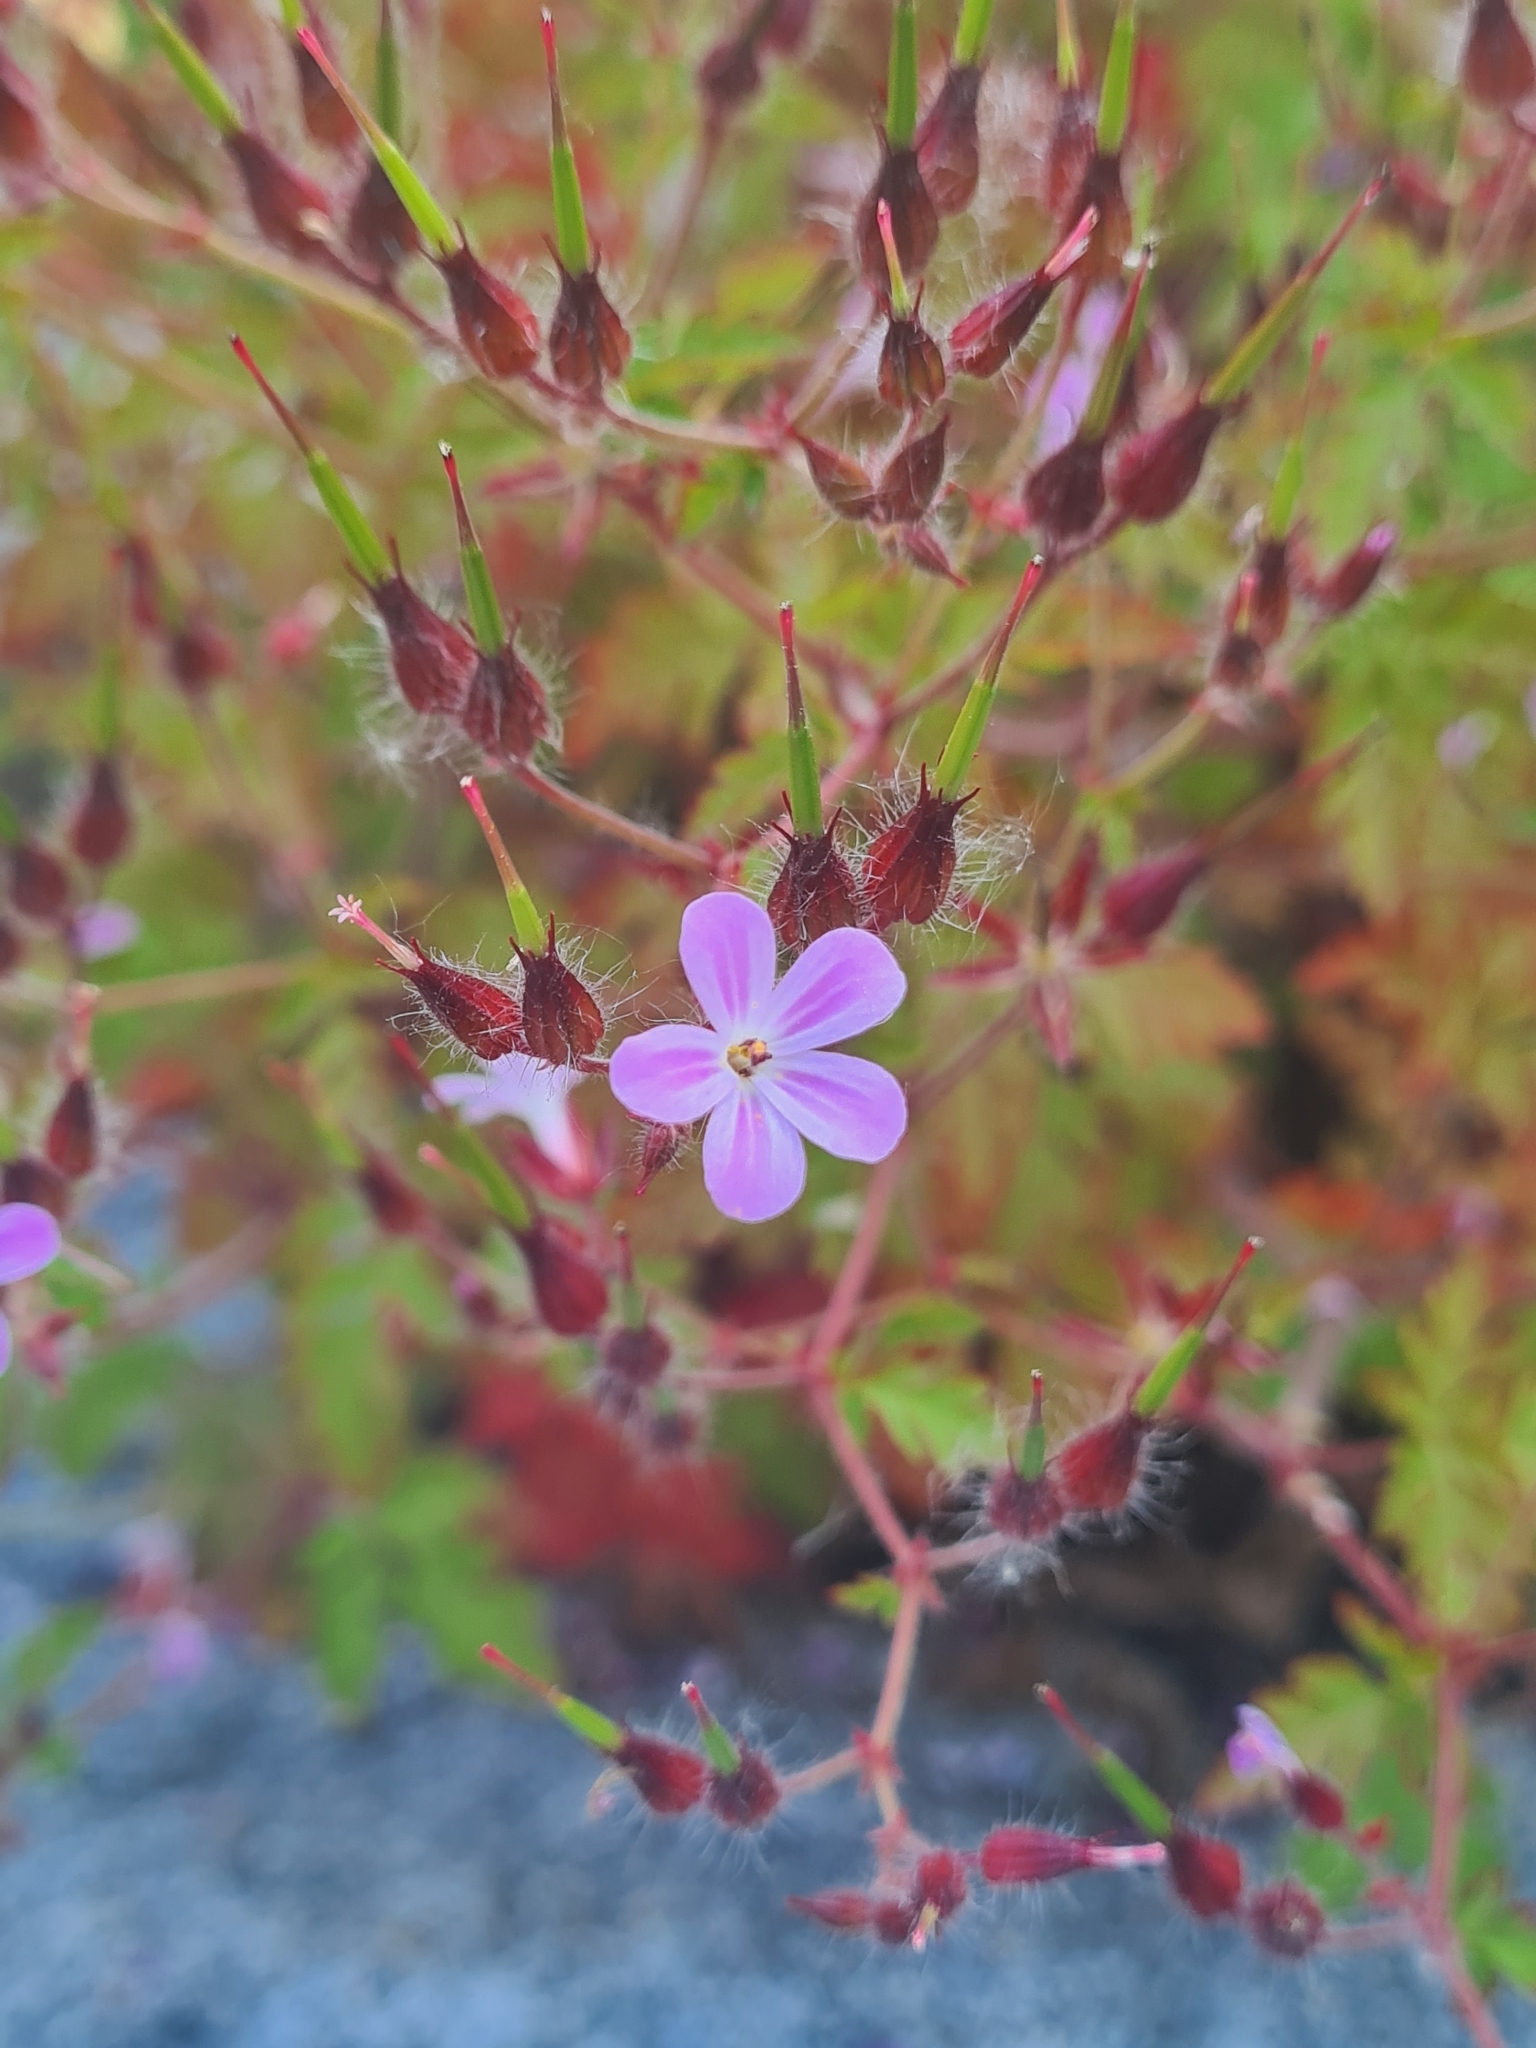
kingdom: Plantae
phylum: Tracheophyta
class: Magnoliopsida
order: Geraniales
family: Geraniaceae
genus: Geranium
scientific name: Geranium robertianum
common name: Herb-robert
